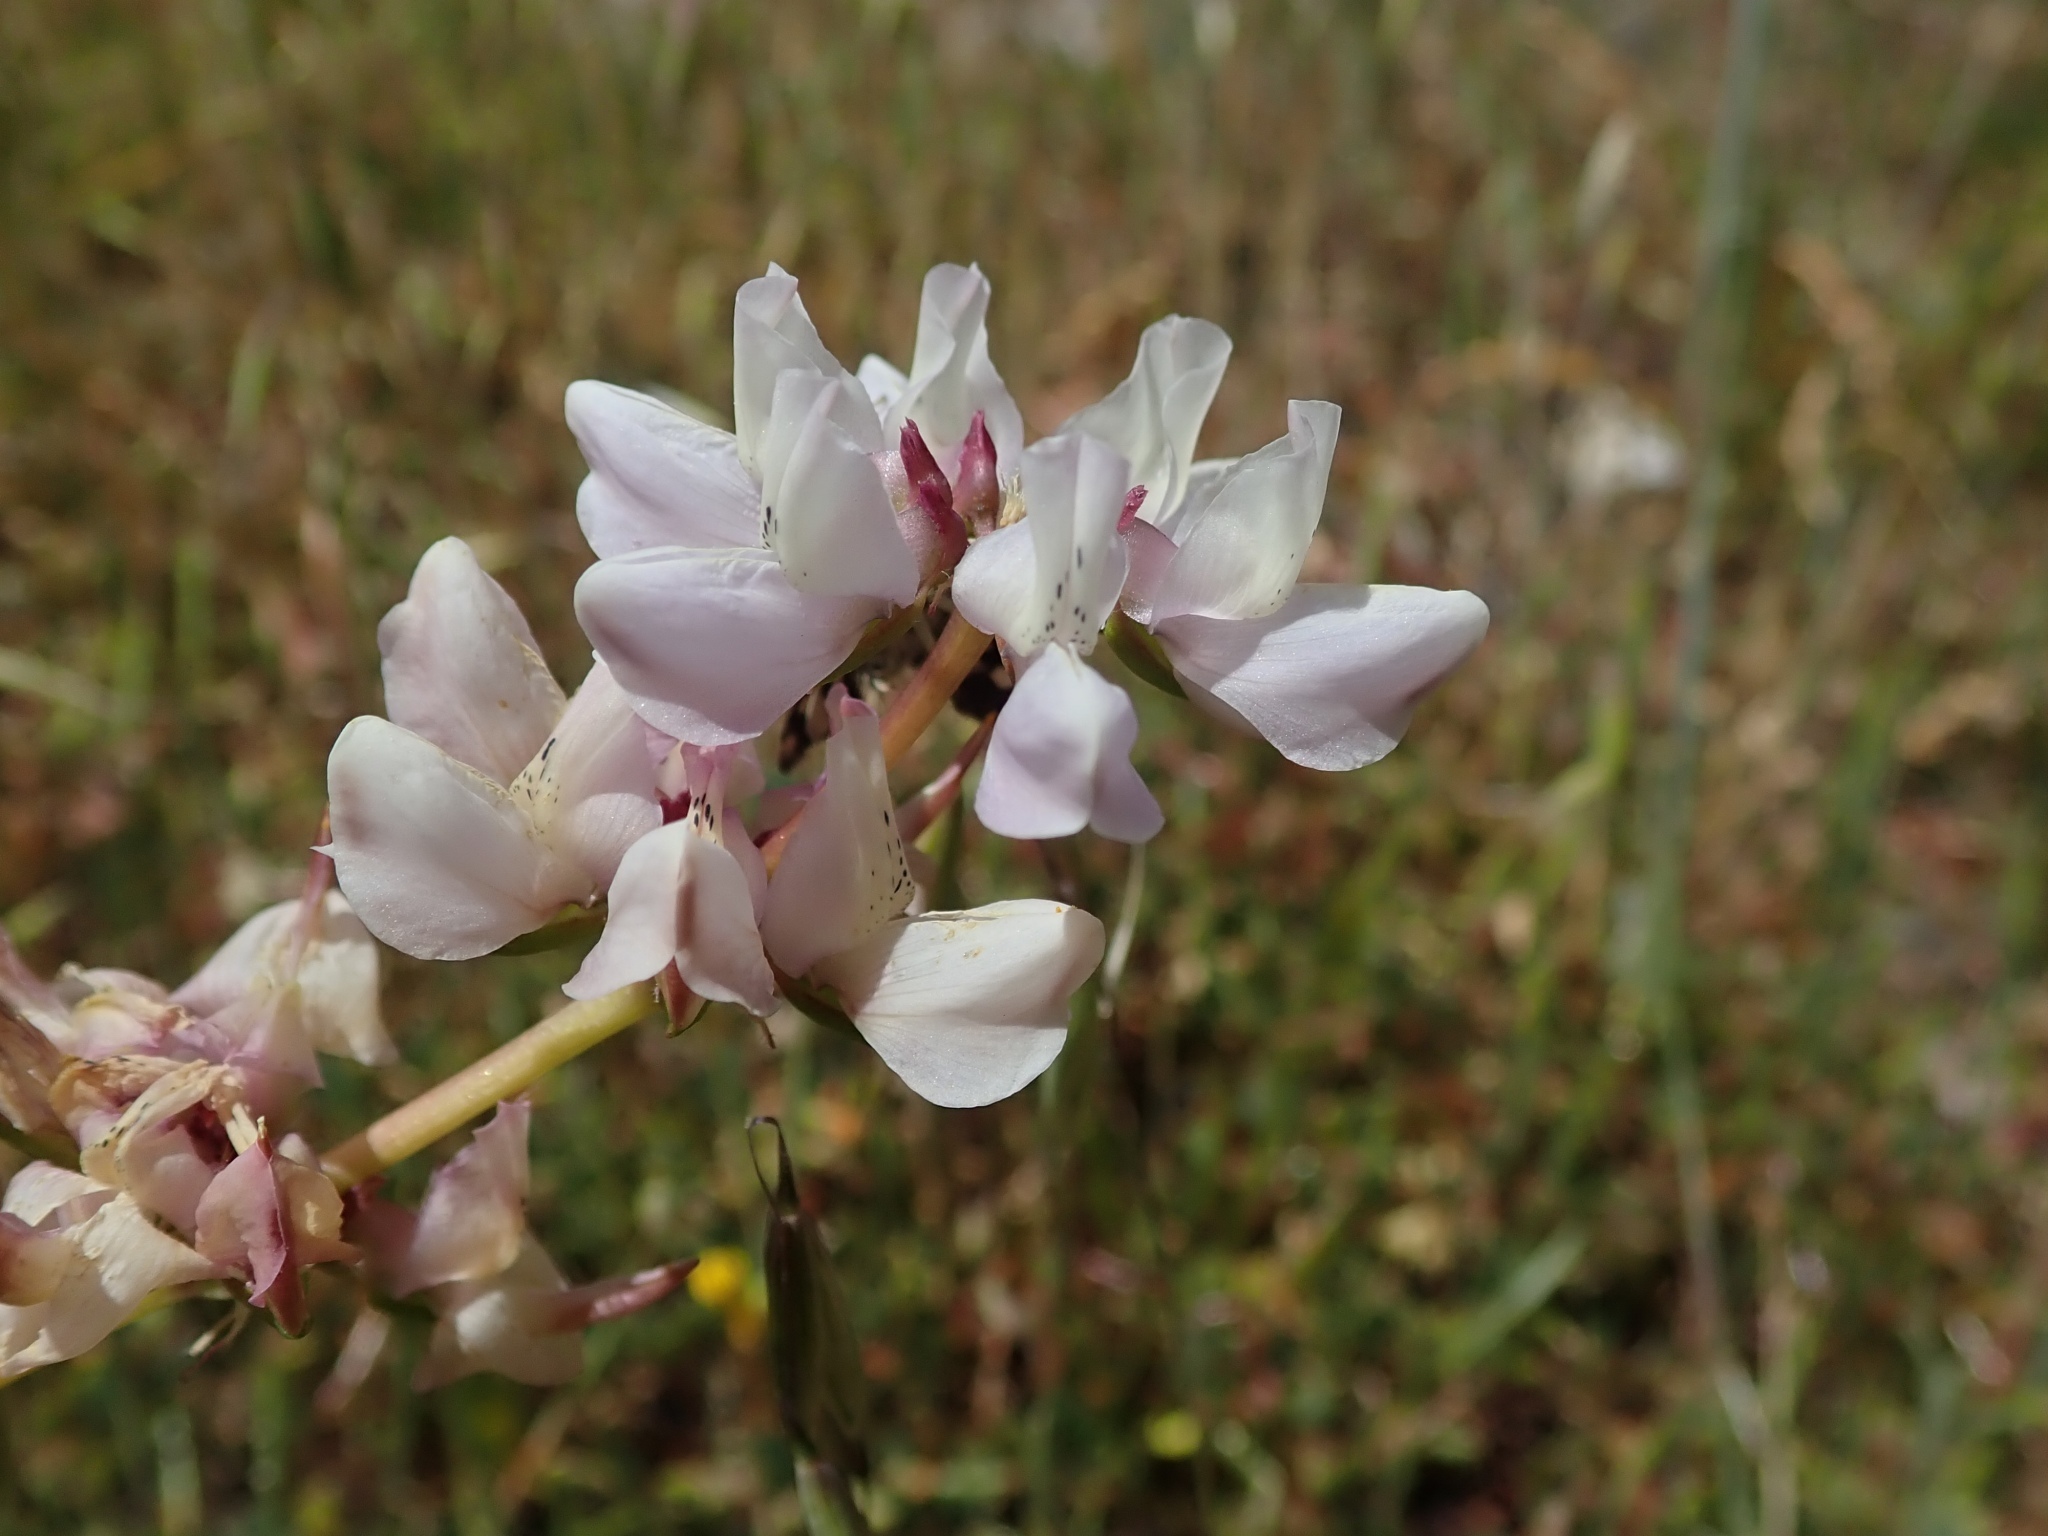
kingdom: Plantae
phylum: Tracheophyta
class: Magnoliopsida
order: Fabales
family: Fabaceae
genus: Lupinus
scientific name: Lupinus microcarpus
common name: Chick lupine
